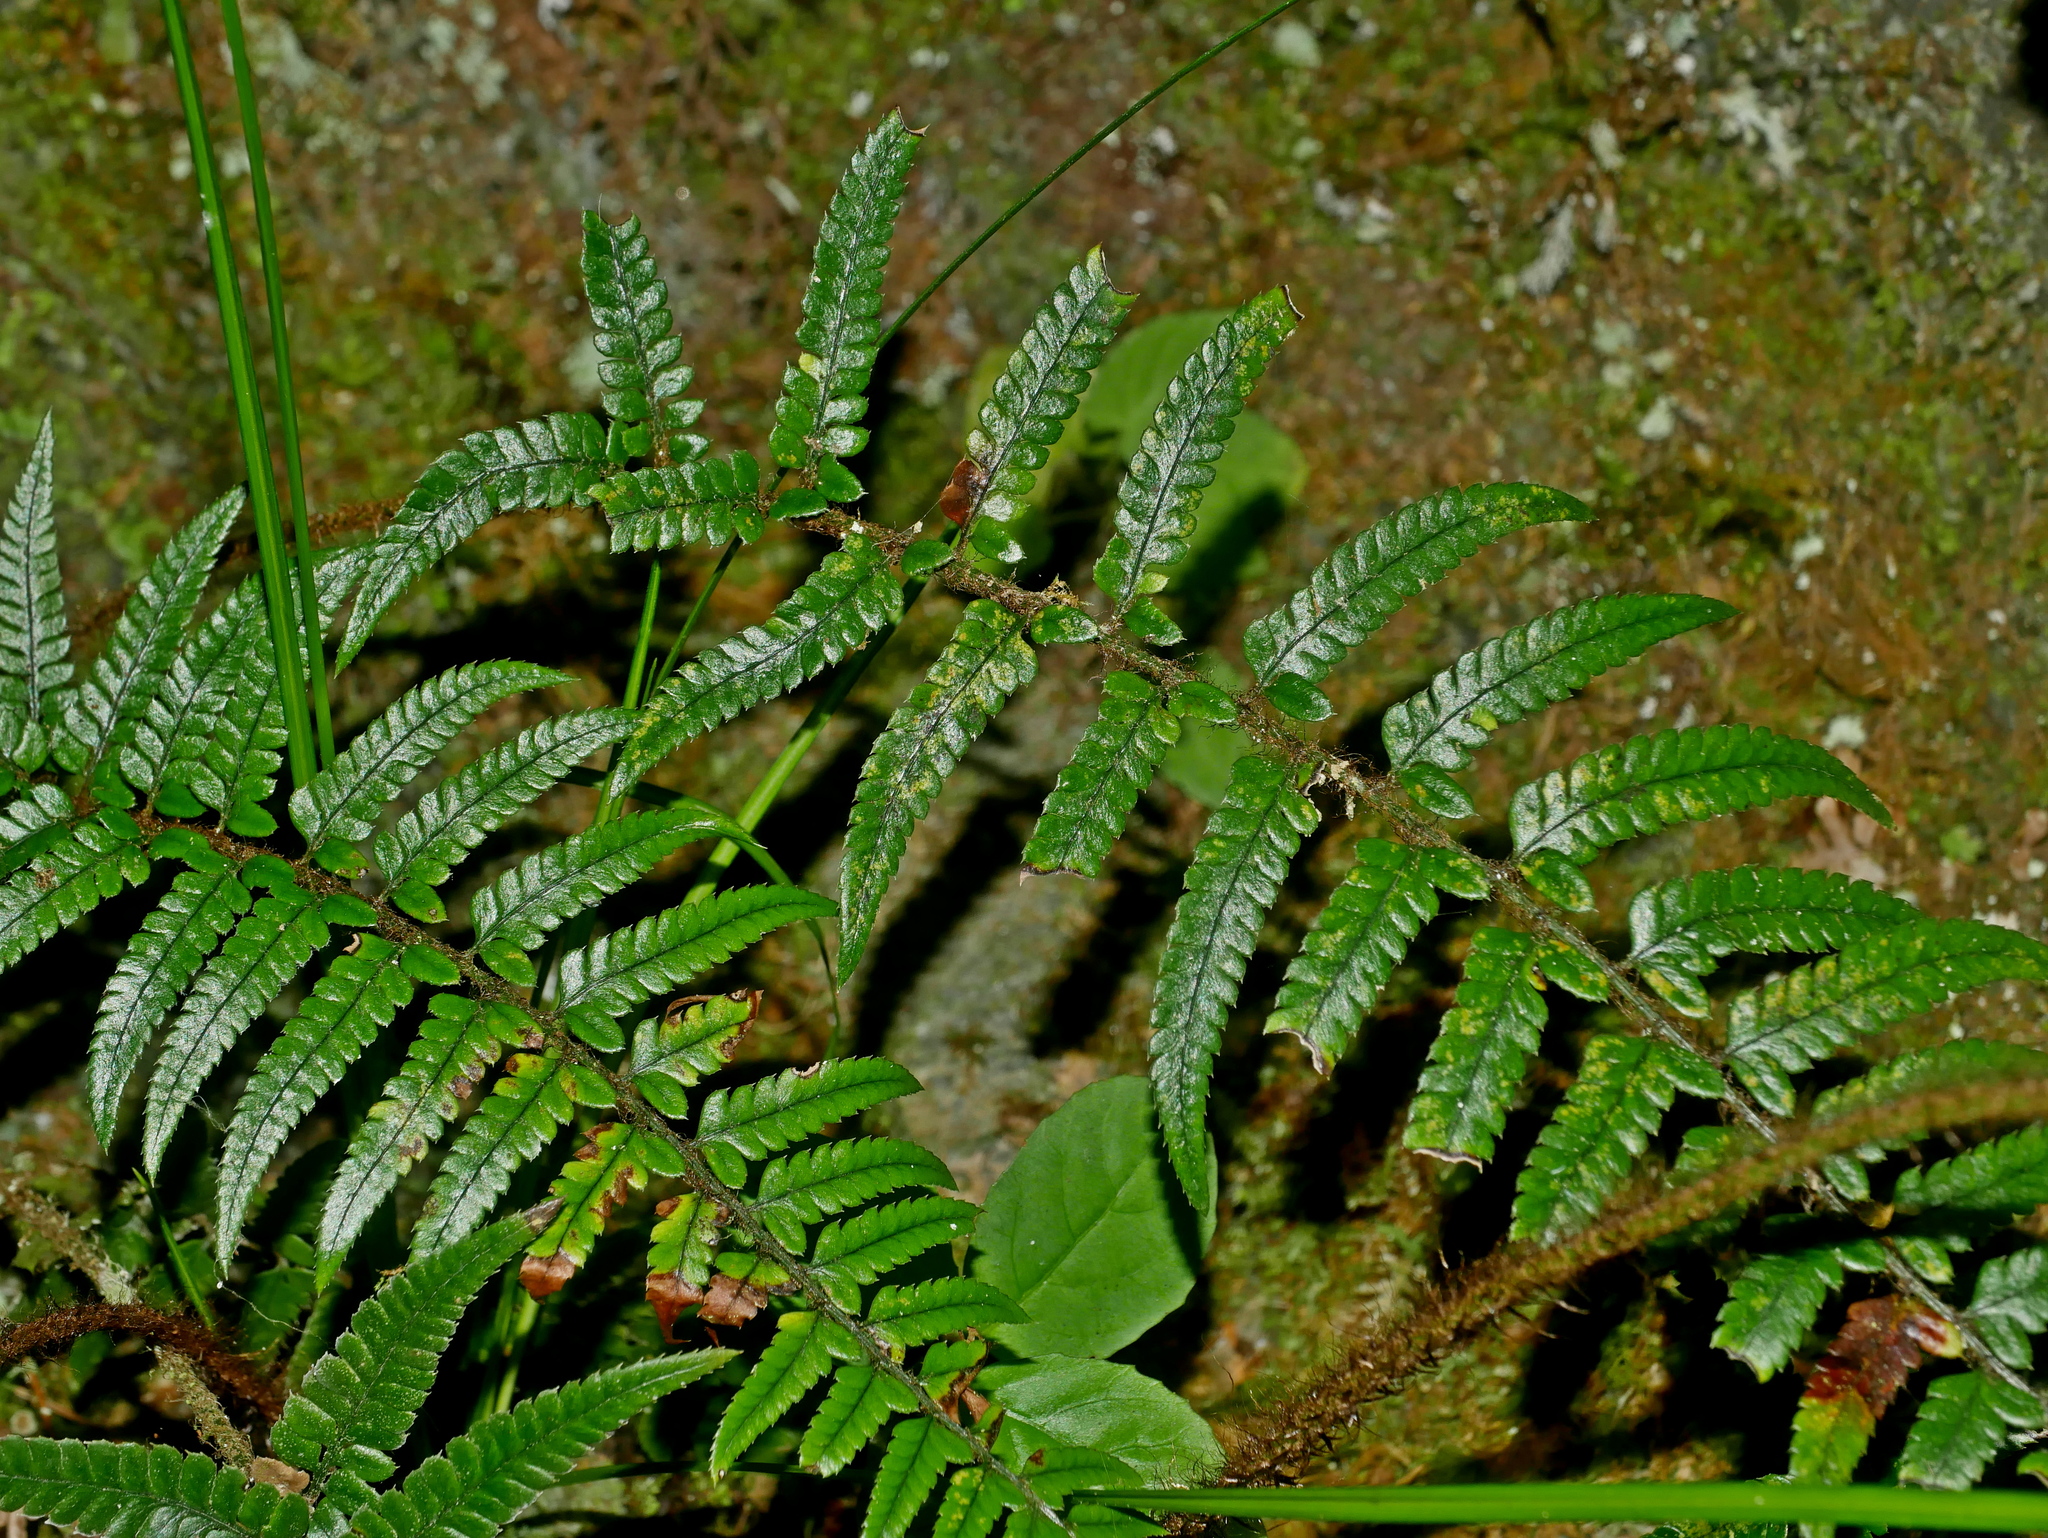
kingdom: Plantae
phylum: Tracheophyta
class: Polypodiopsida
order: Polypodiales
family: Dryopteridaceae
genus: Polystichum
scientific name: Polystichum luctuosum
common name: Korean rockfern
